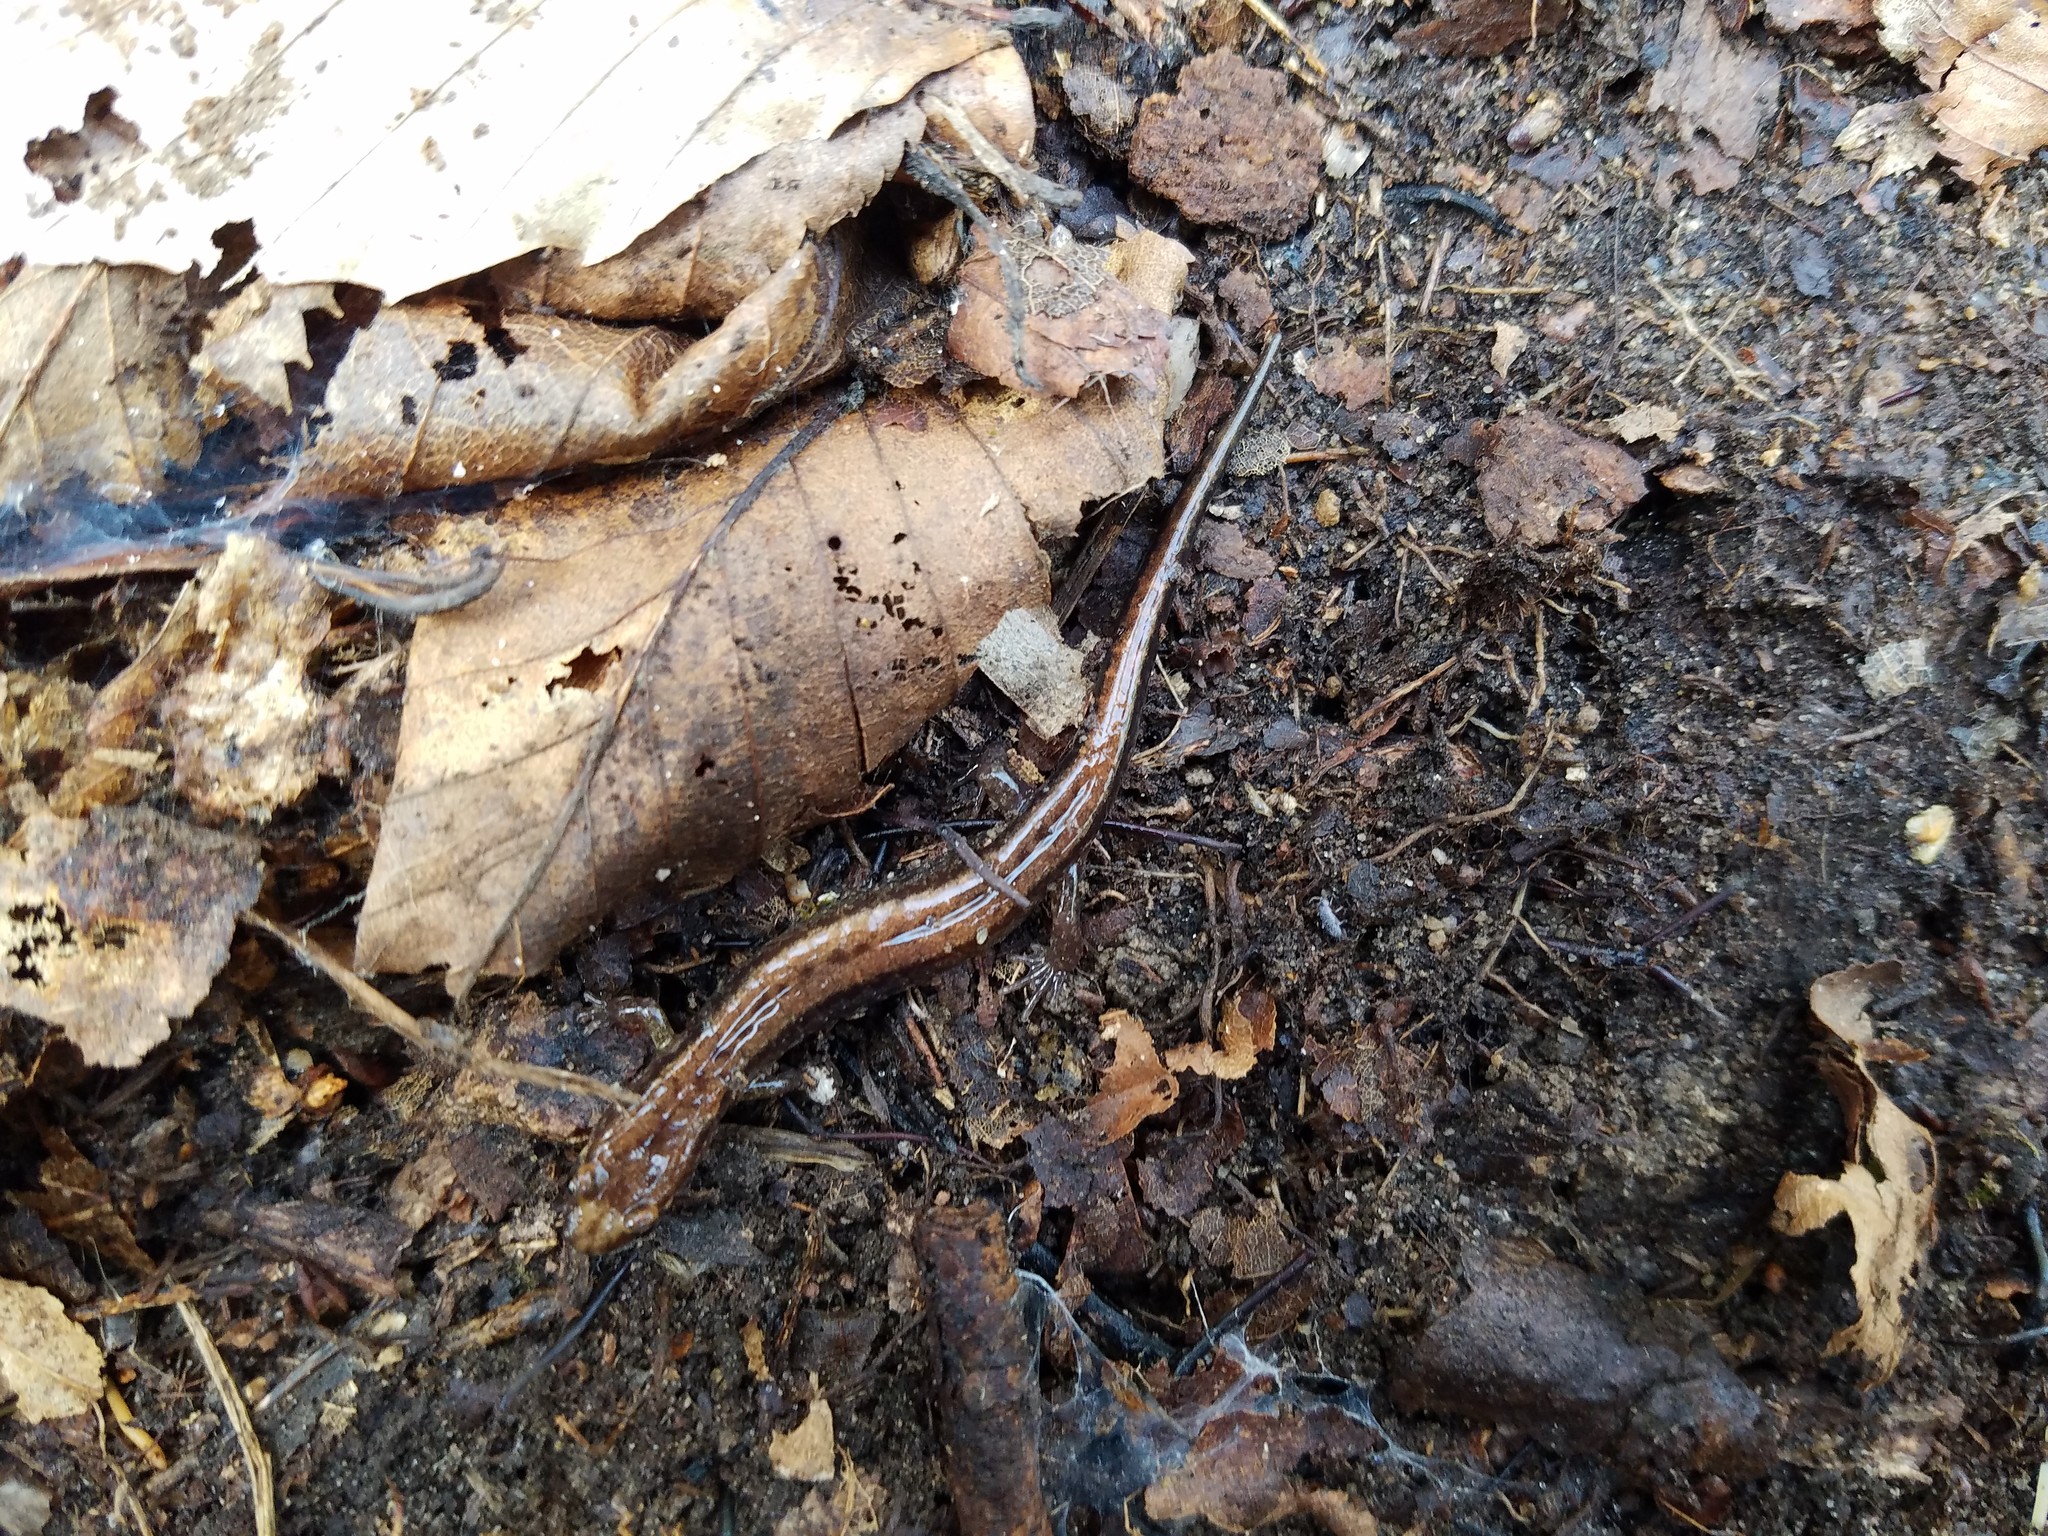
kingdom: Animalia
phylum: Chordata
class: Amphibia
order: Caudata
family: Plethodontidae
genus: Desmognathus
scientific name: Desmognathus ochrophaeus
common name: Allegheny mountain dusky salamander
